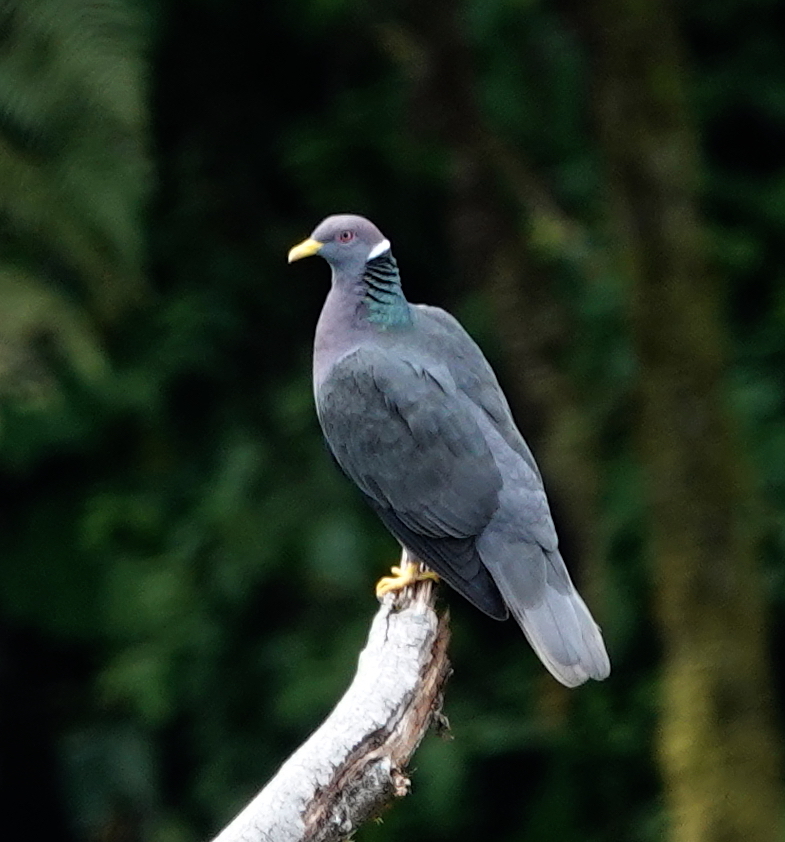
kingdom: Animalia
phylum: Chordata
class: Aves
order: Columbiformes
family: Columbidae
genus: Patagioenas
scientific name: Patagioenas fasciata
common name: Band-tailed pigeon
